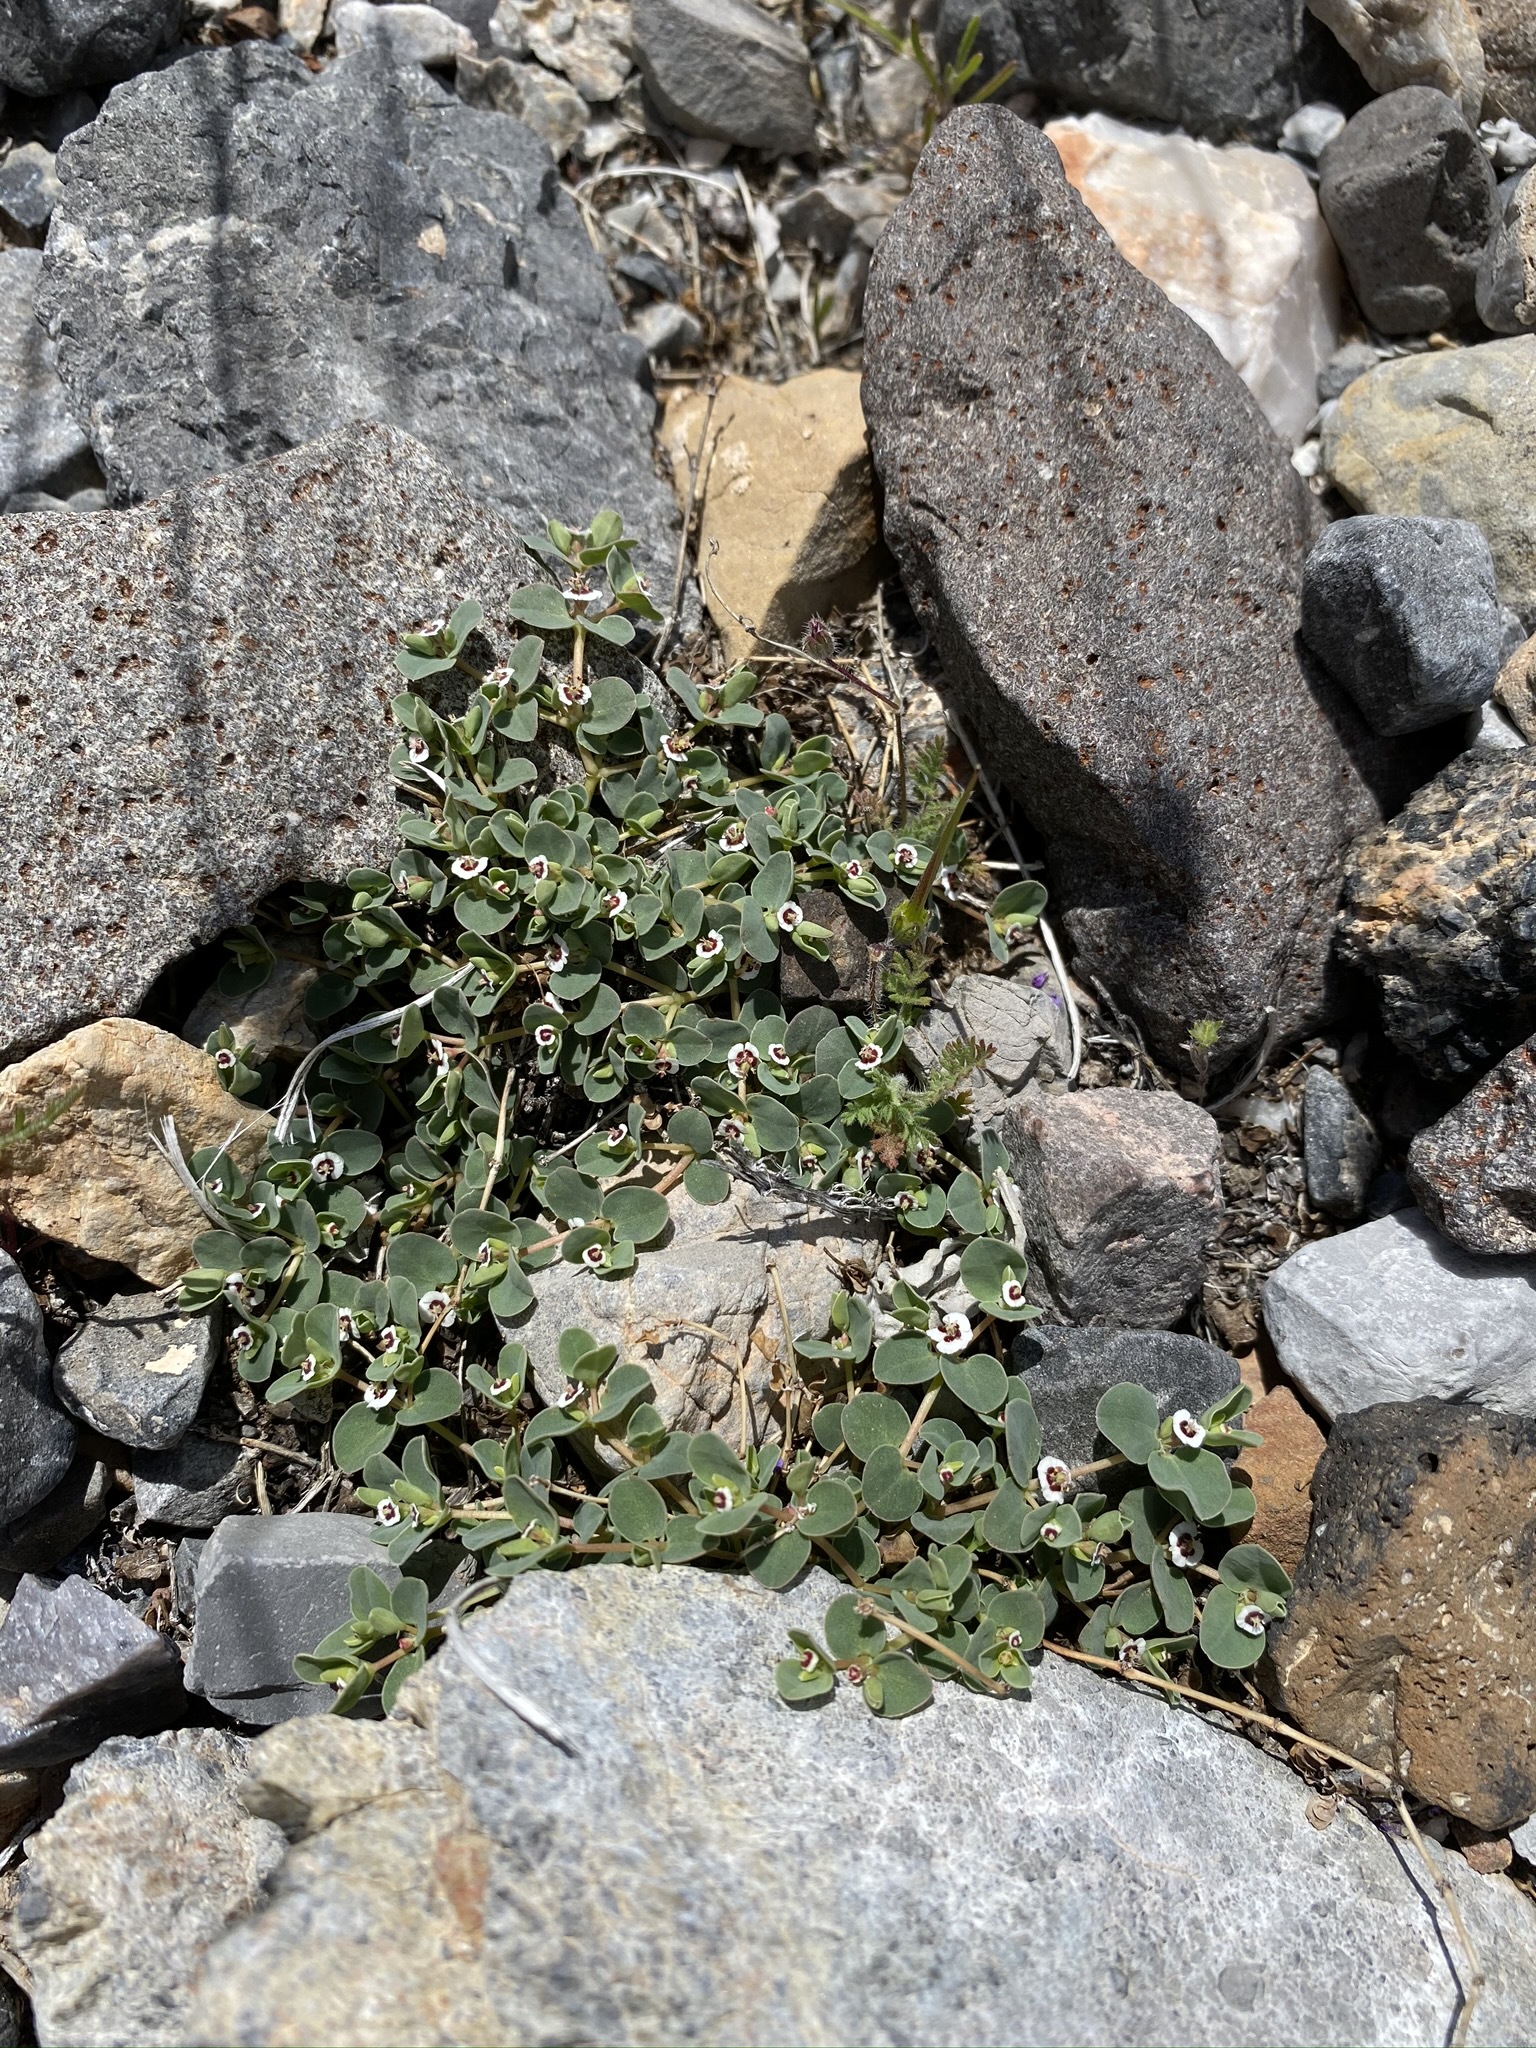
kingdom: Plantae
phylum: Tracheophyta
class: Magnoliopsida
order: Malpighiales
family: Euphorbiaceae
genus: Euphorbia
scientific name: Euphorbia albomarginata
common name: Whitemargin sandmat
